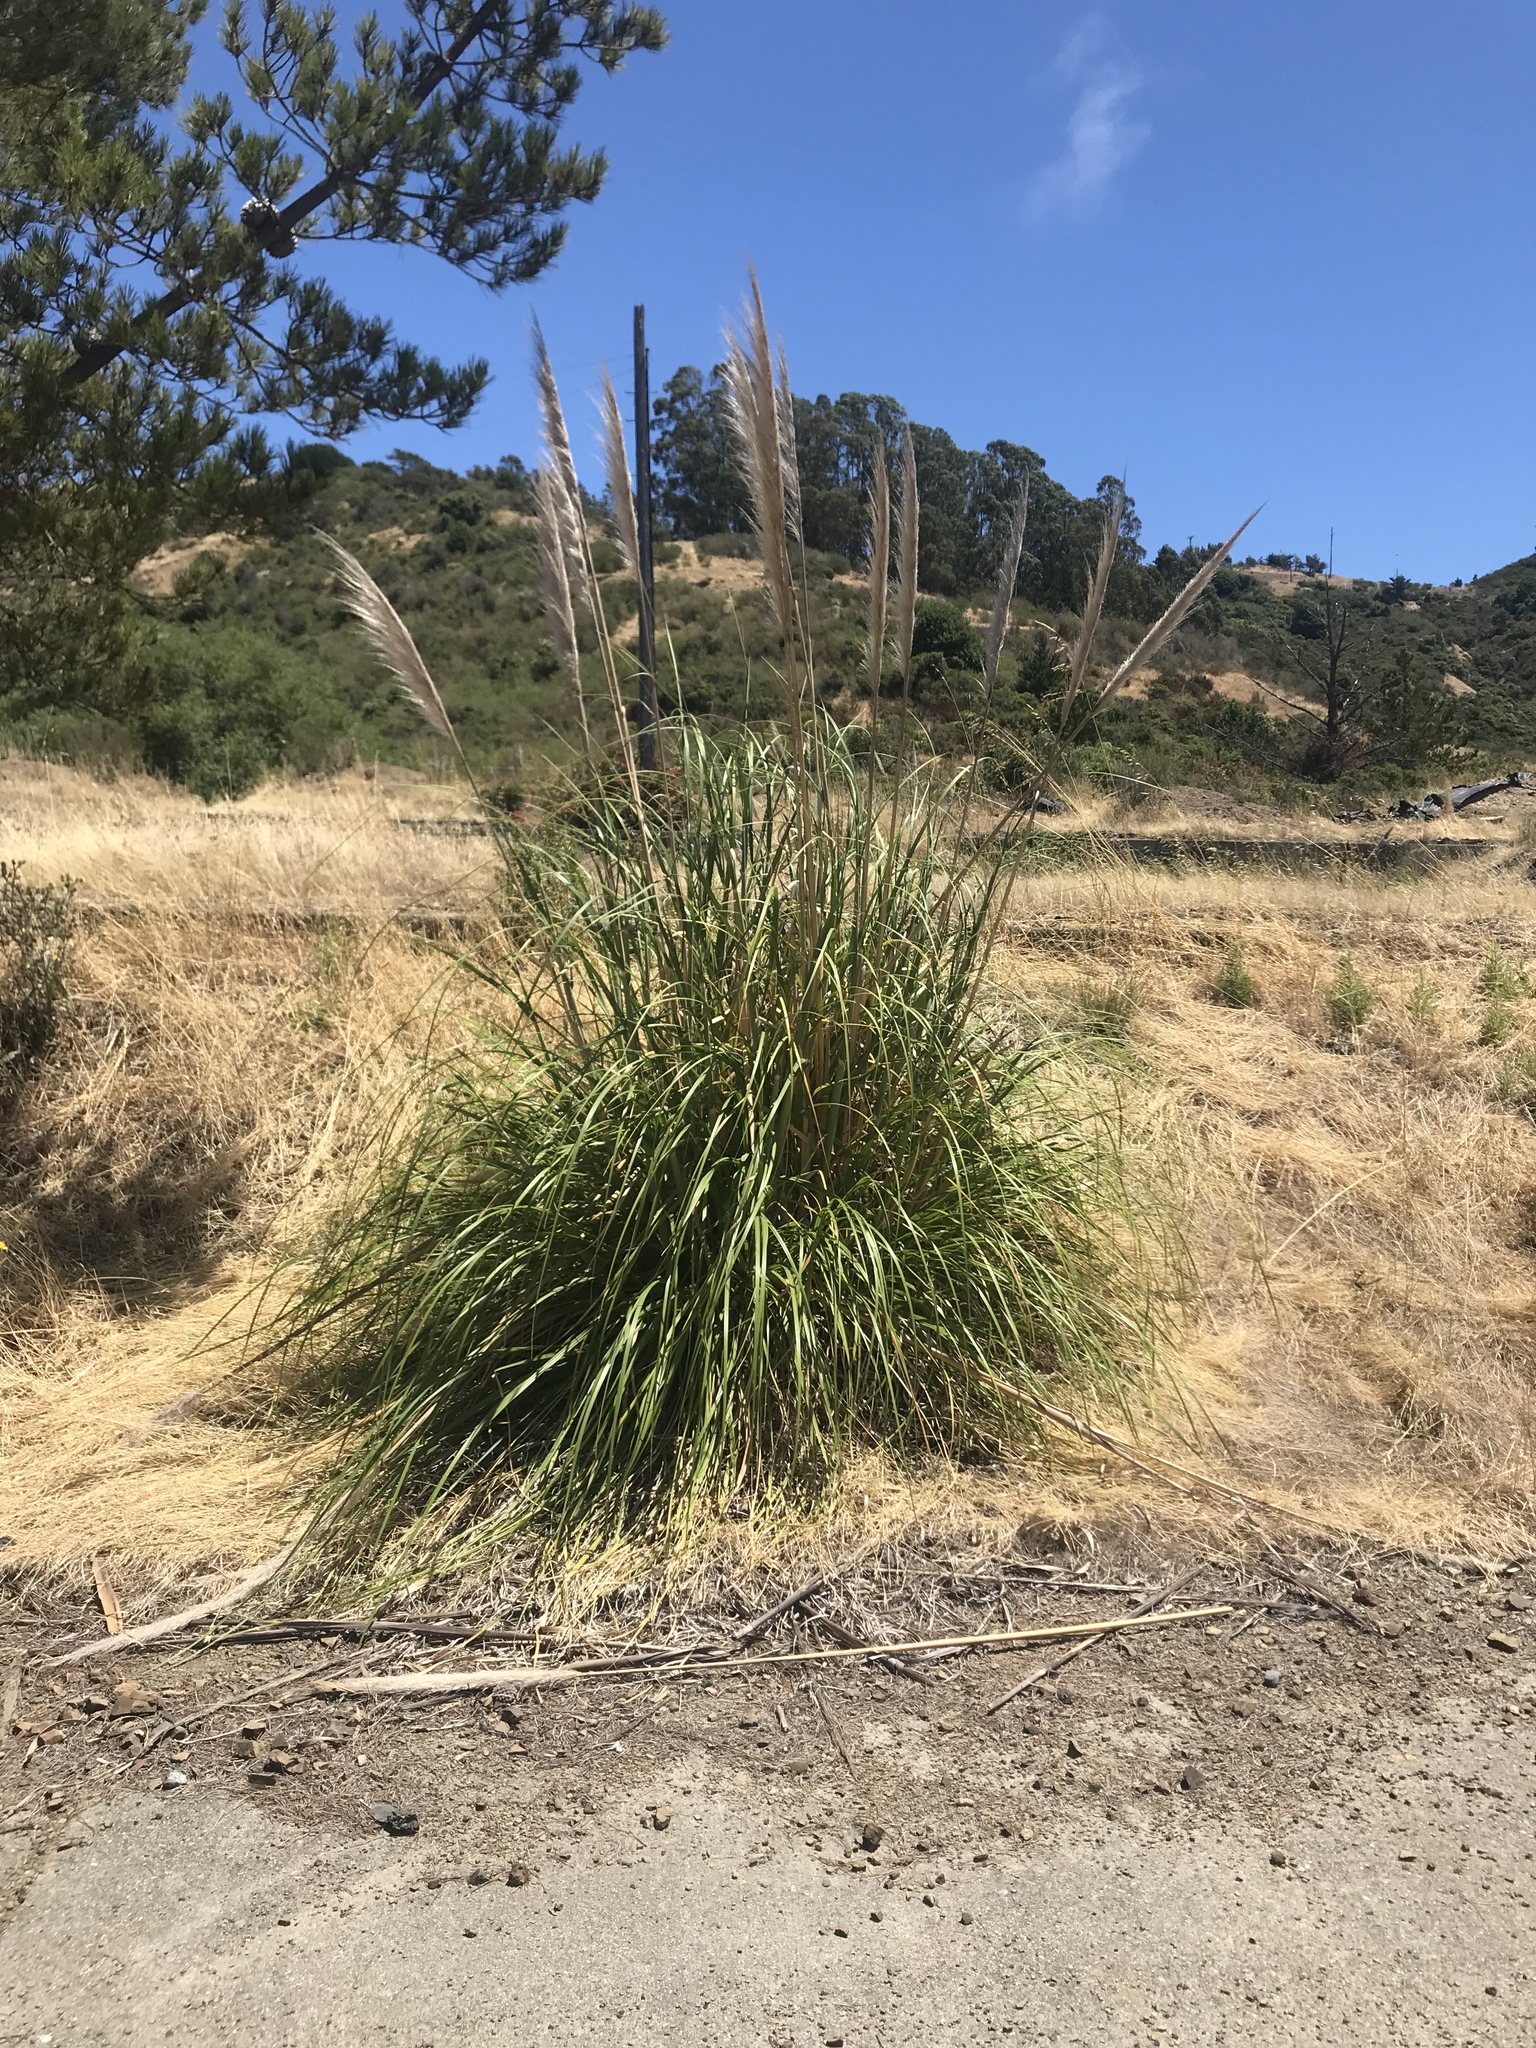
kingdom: Plantae
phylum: Tracheophyta
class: Liliopsida
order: Poales
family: Poaceae
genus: Cortaderia
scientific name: Cortaderia selloana
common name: Uruguayan pampas grass
